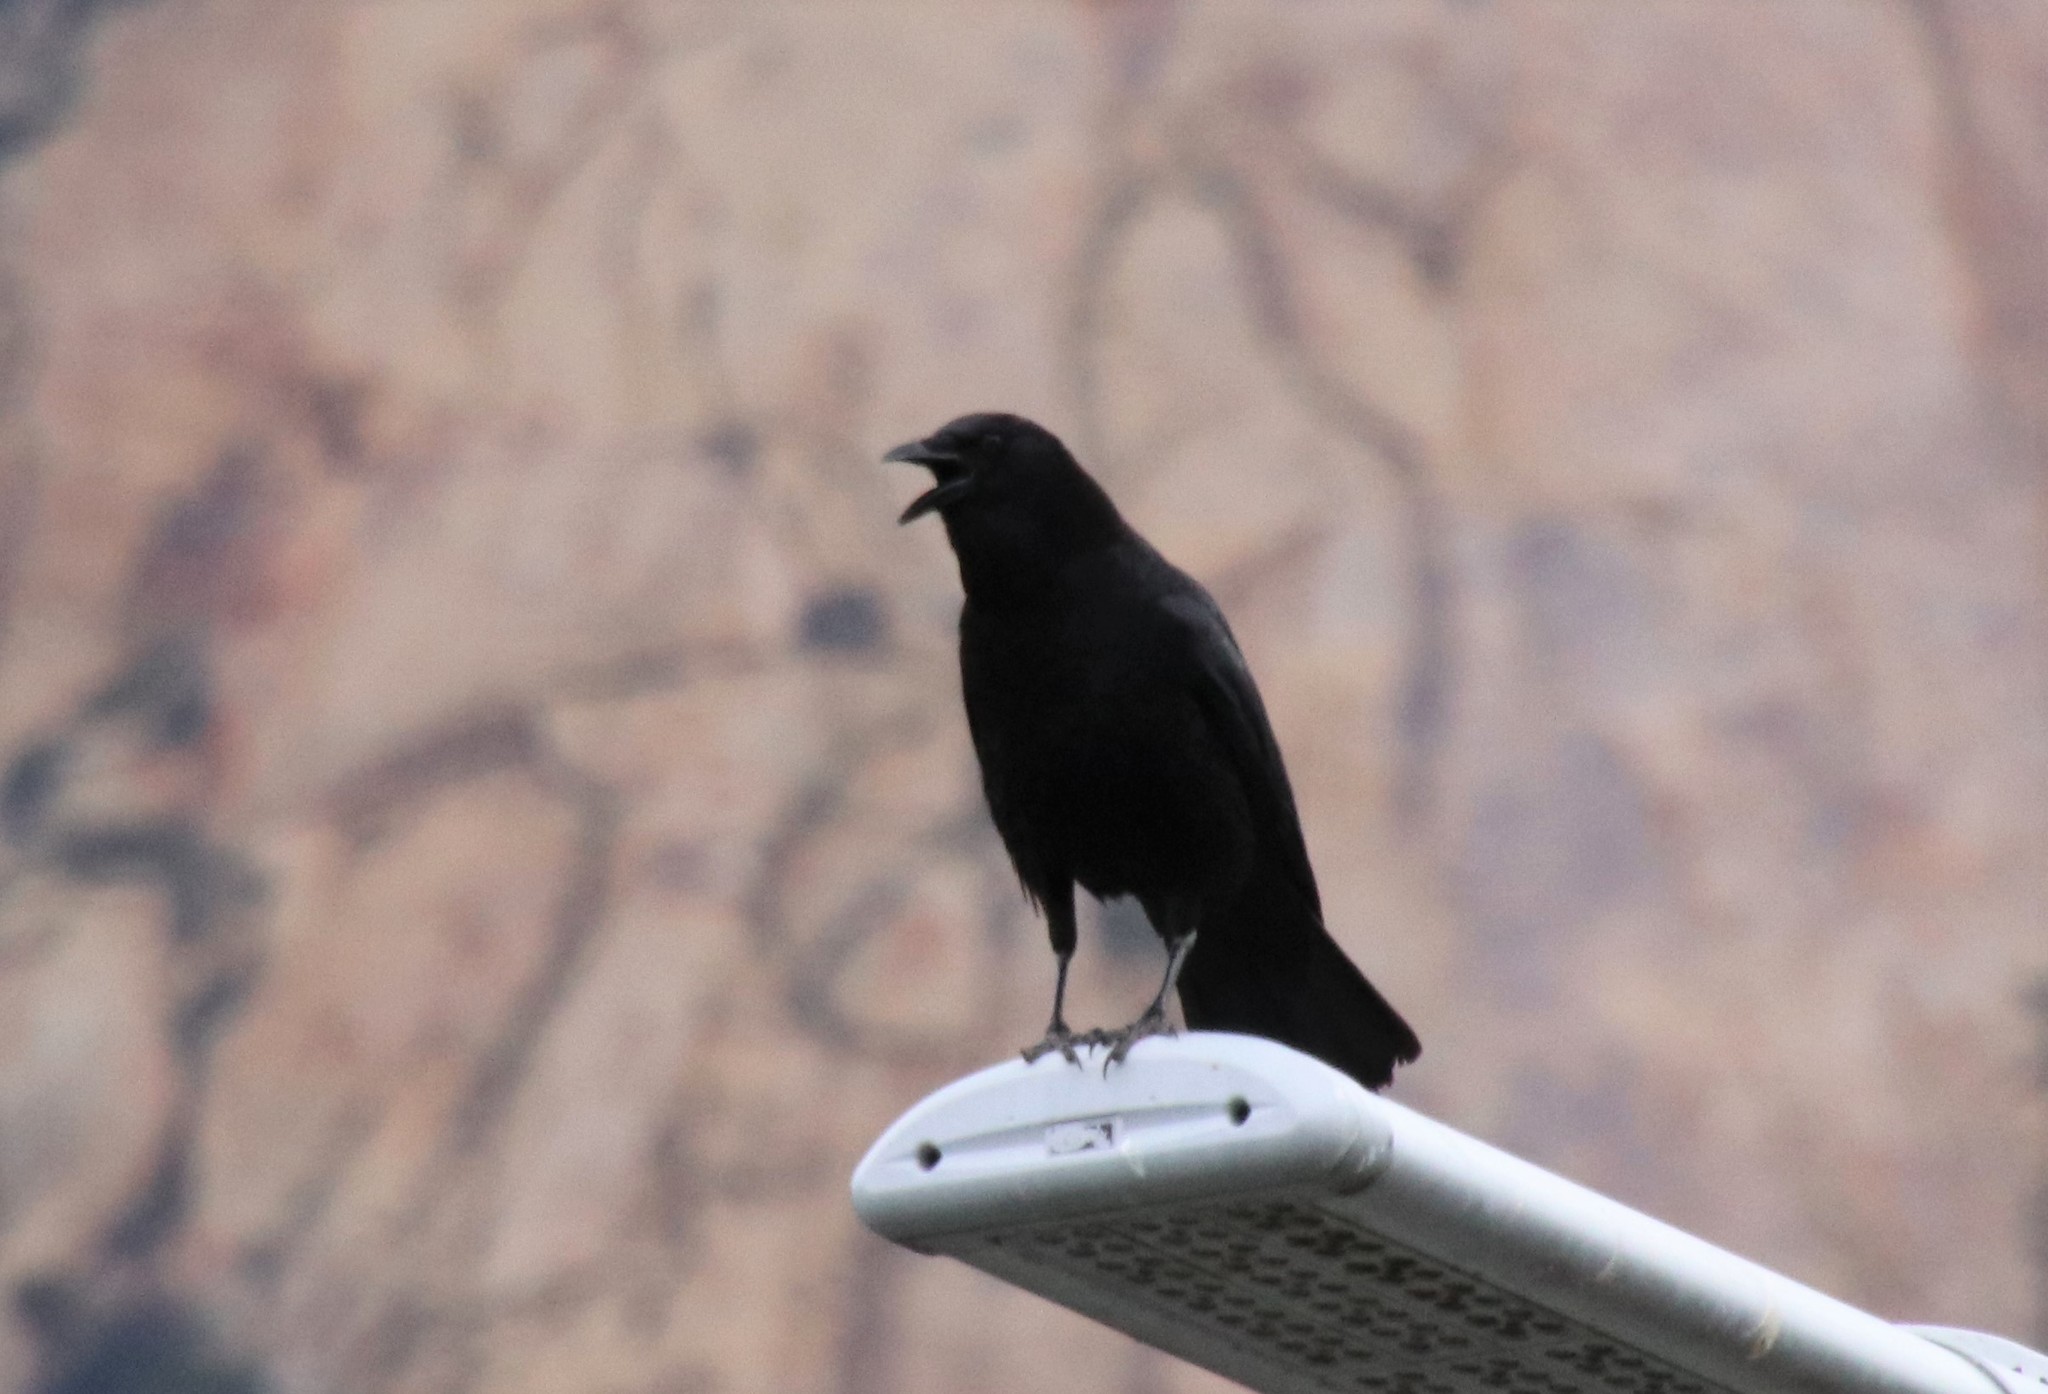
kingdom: Animalia
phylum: Chordata
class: Aves
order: Passeriformes
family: Corvidae
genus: Corvus
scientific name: Corvus brachyrhynchos
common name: American crow
